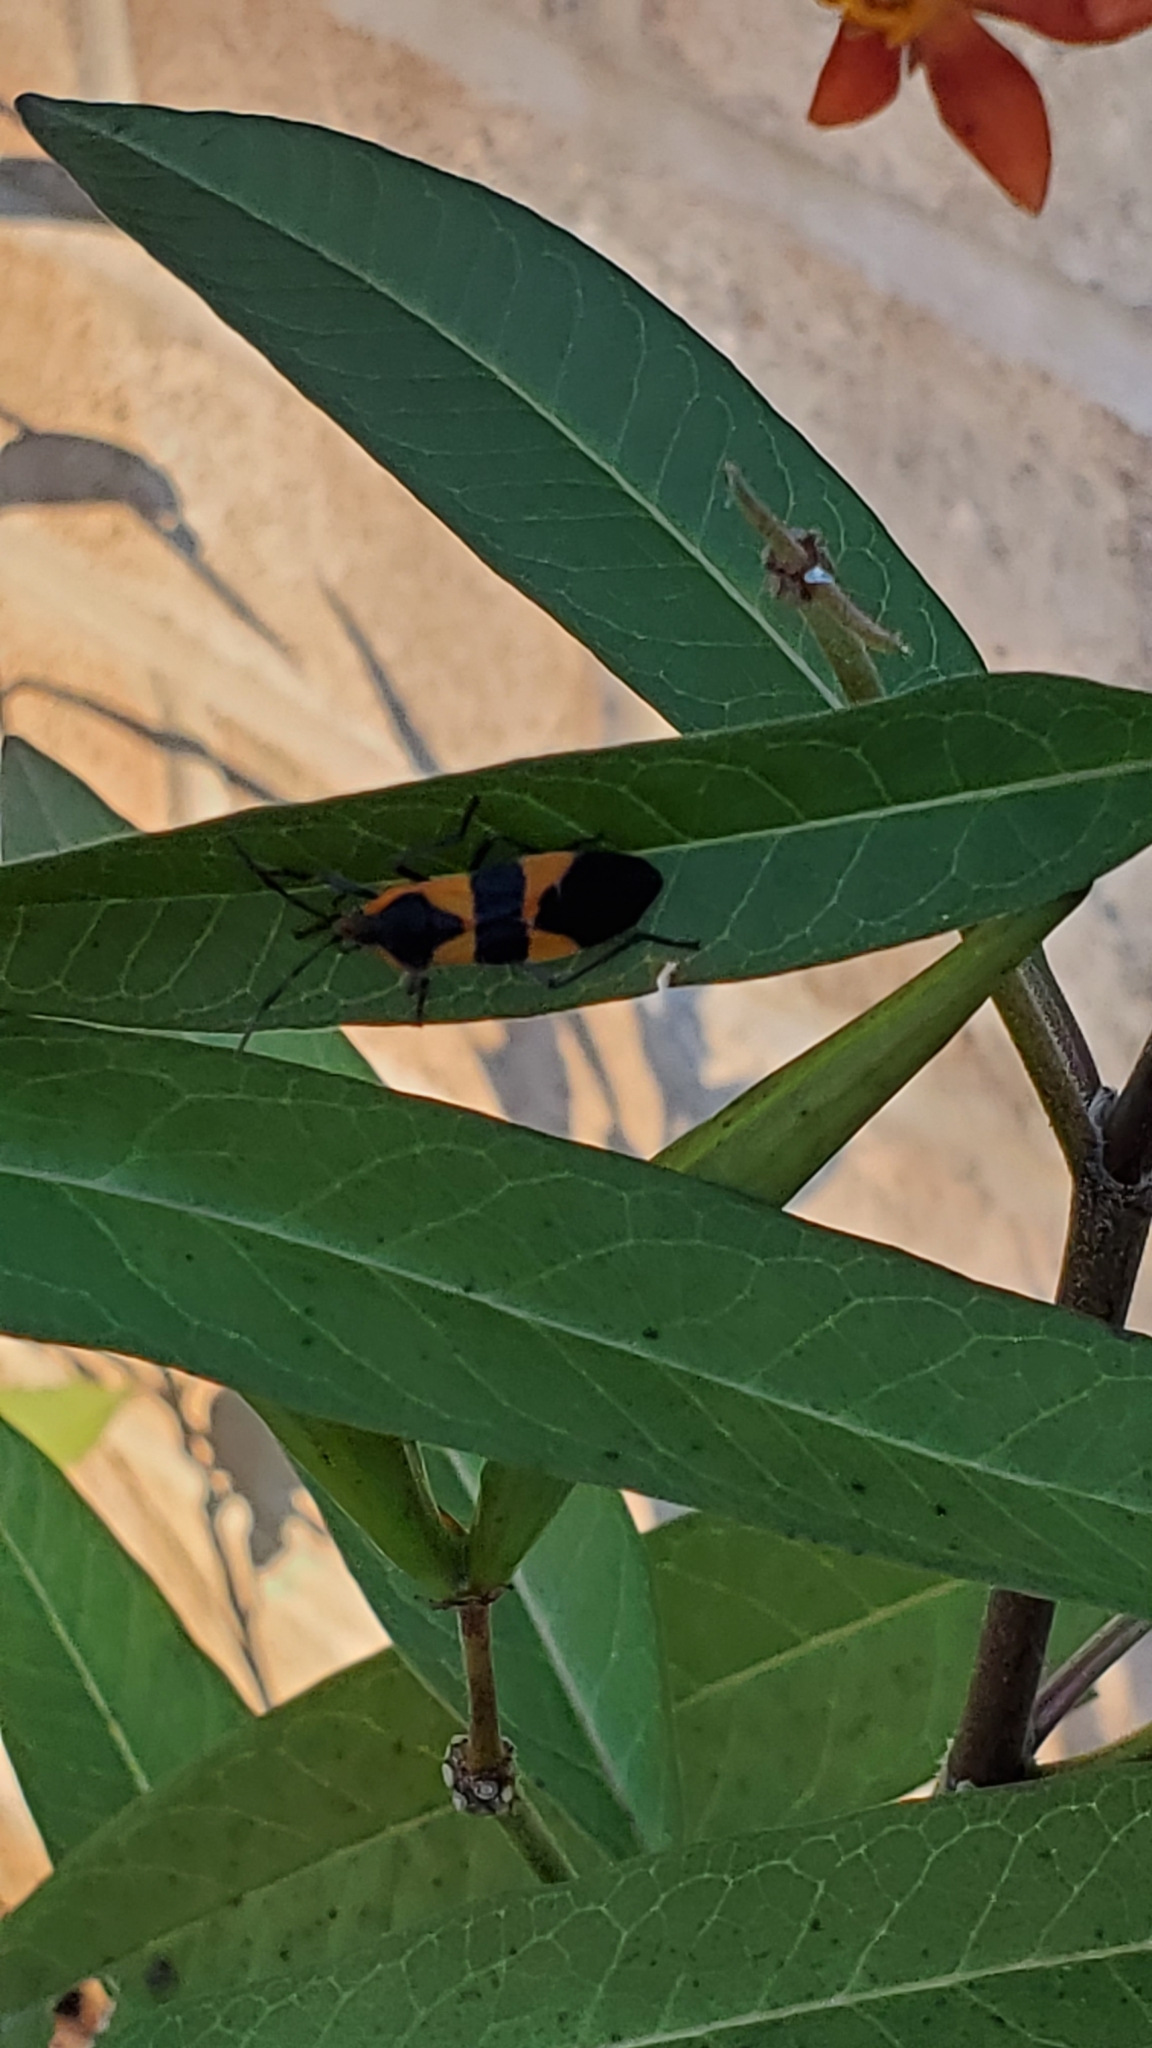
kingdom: Animalia
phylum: Arthropoda
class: Insecta
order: Hemiptera
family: Lygaeidae
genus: Oncopeltus
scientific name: Oncopeltus fasciatus
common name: Large milkweed bug
